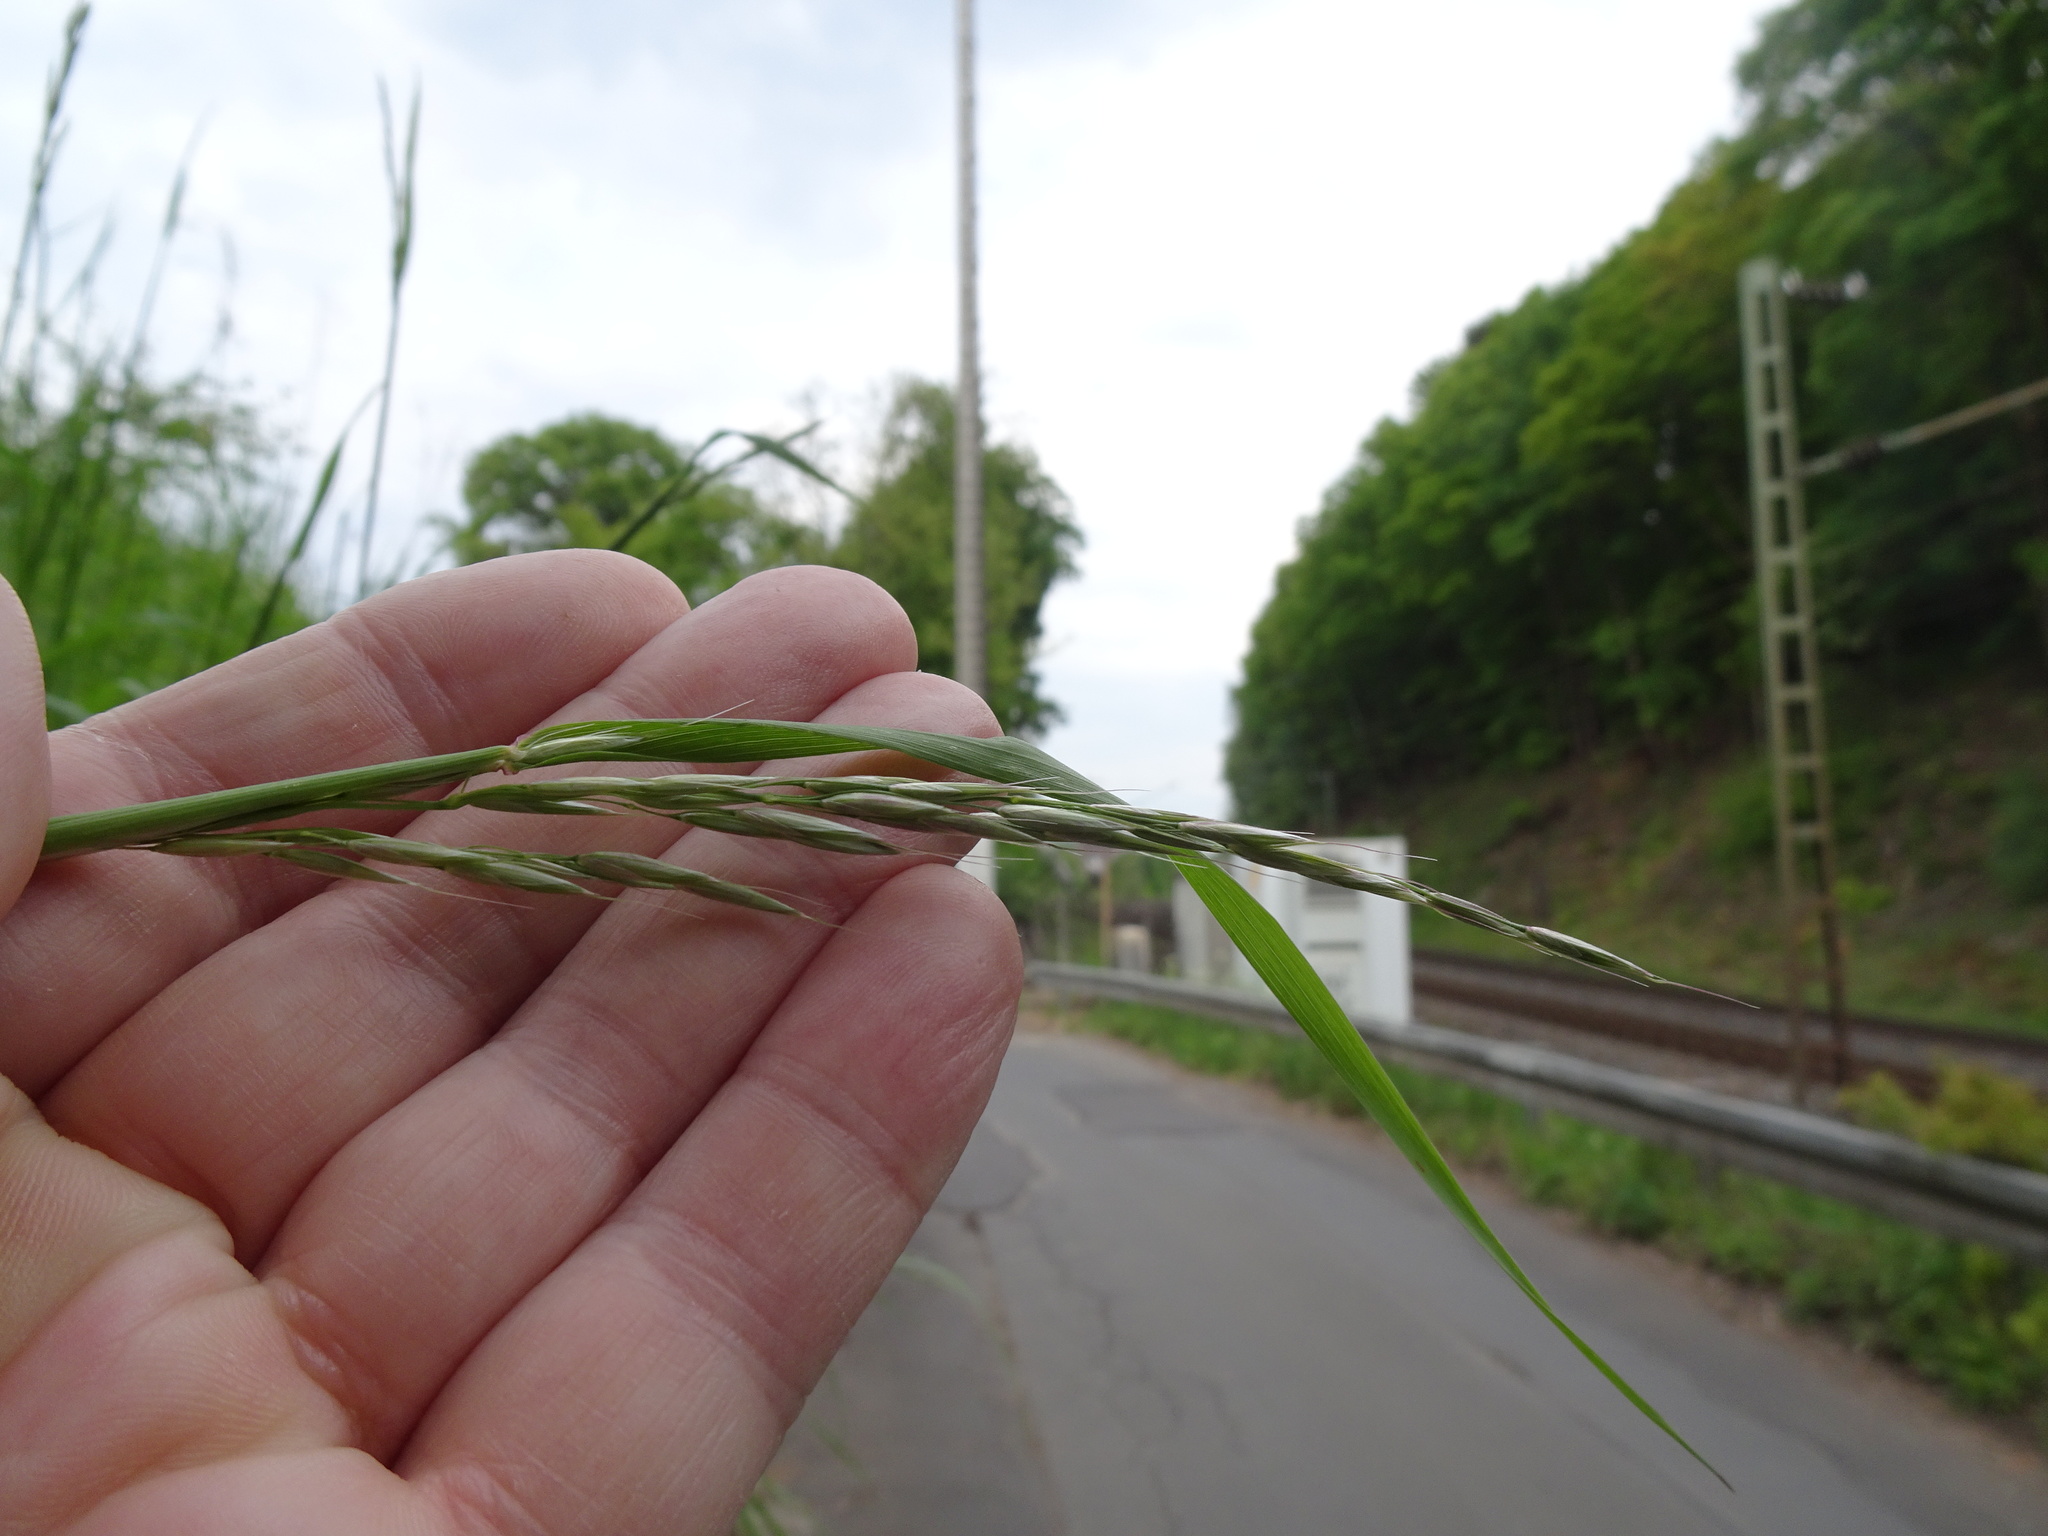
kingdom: Plantae
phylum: Tracheophyta
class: Liliopsida
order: Poales
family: Poaceae
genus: Arrhenatherum
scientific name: Arrhenatherum elatius
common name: Tall oatgrass
